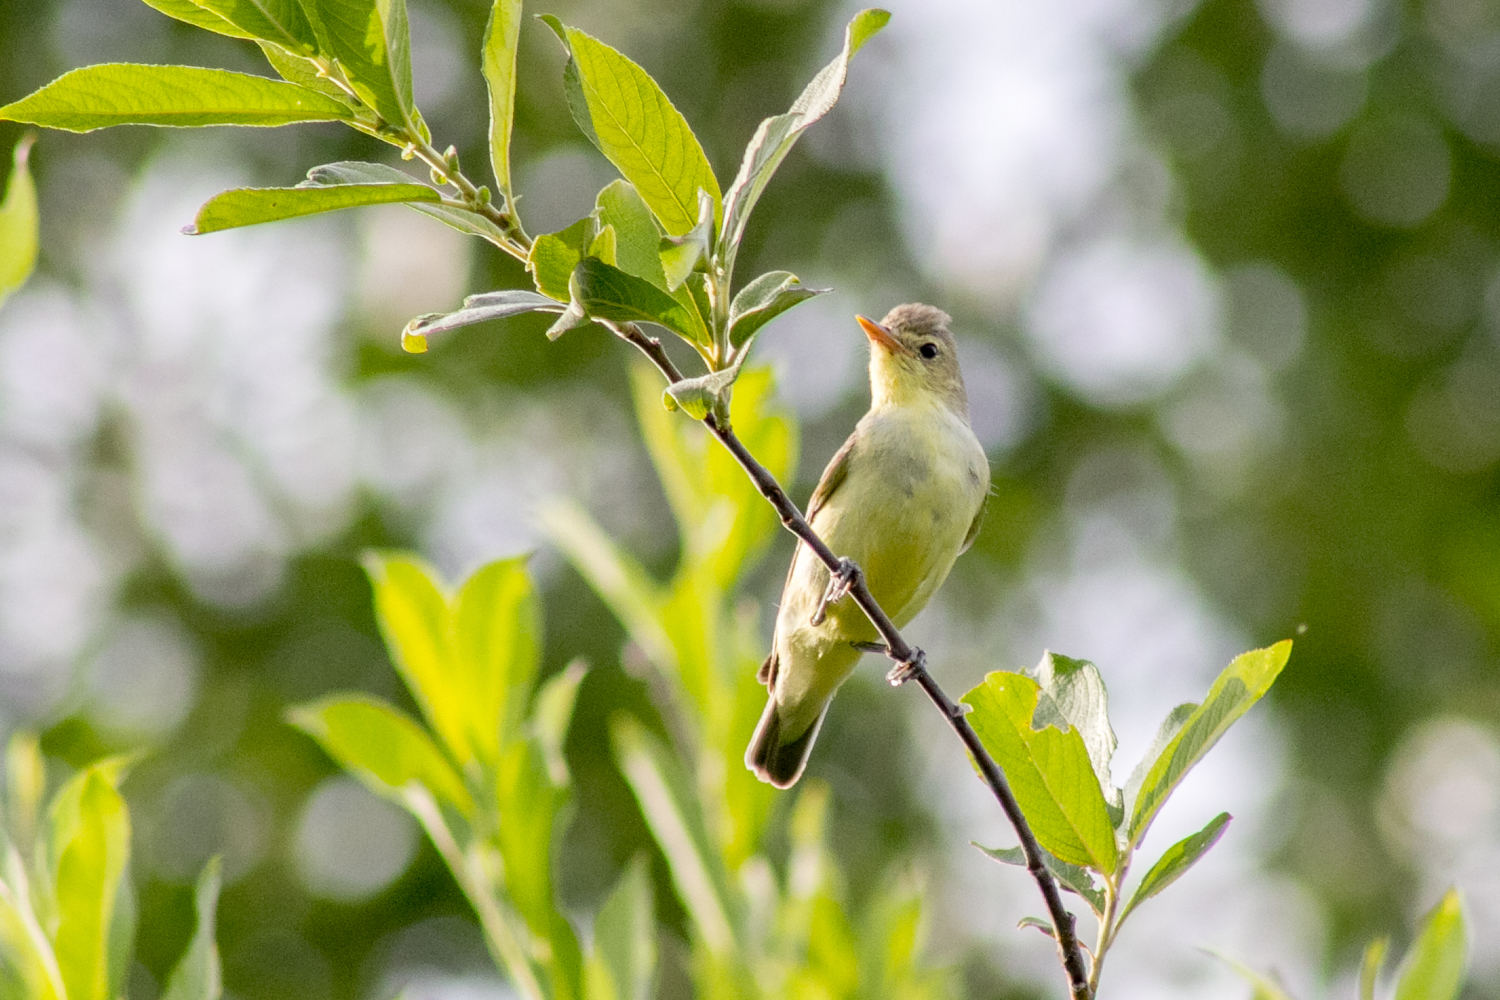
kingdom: Animalia
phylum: Chordata
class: Aves
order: Passeriformes
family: Acrocephalidae
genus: Hippolais
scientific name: Hippolais icterina
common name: Icterine warbler
